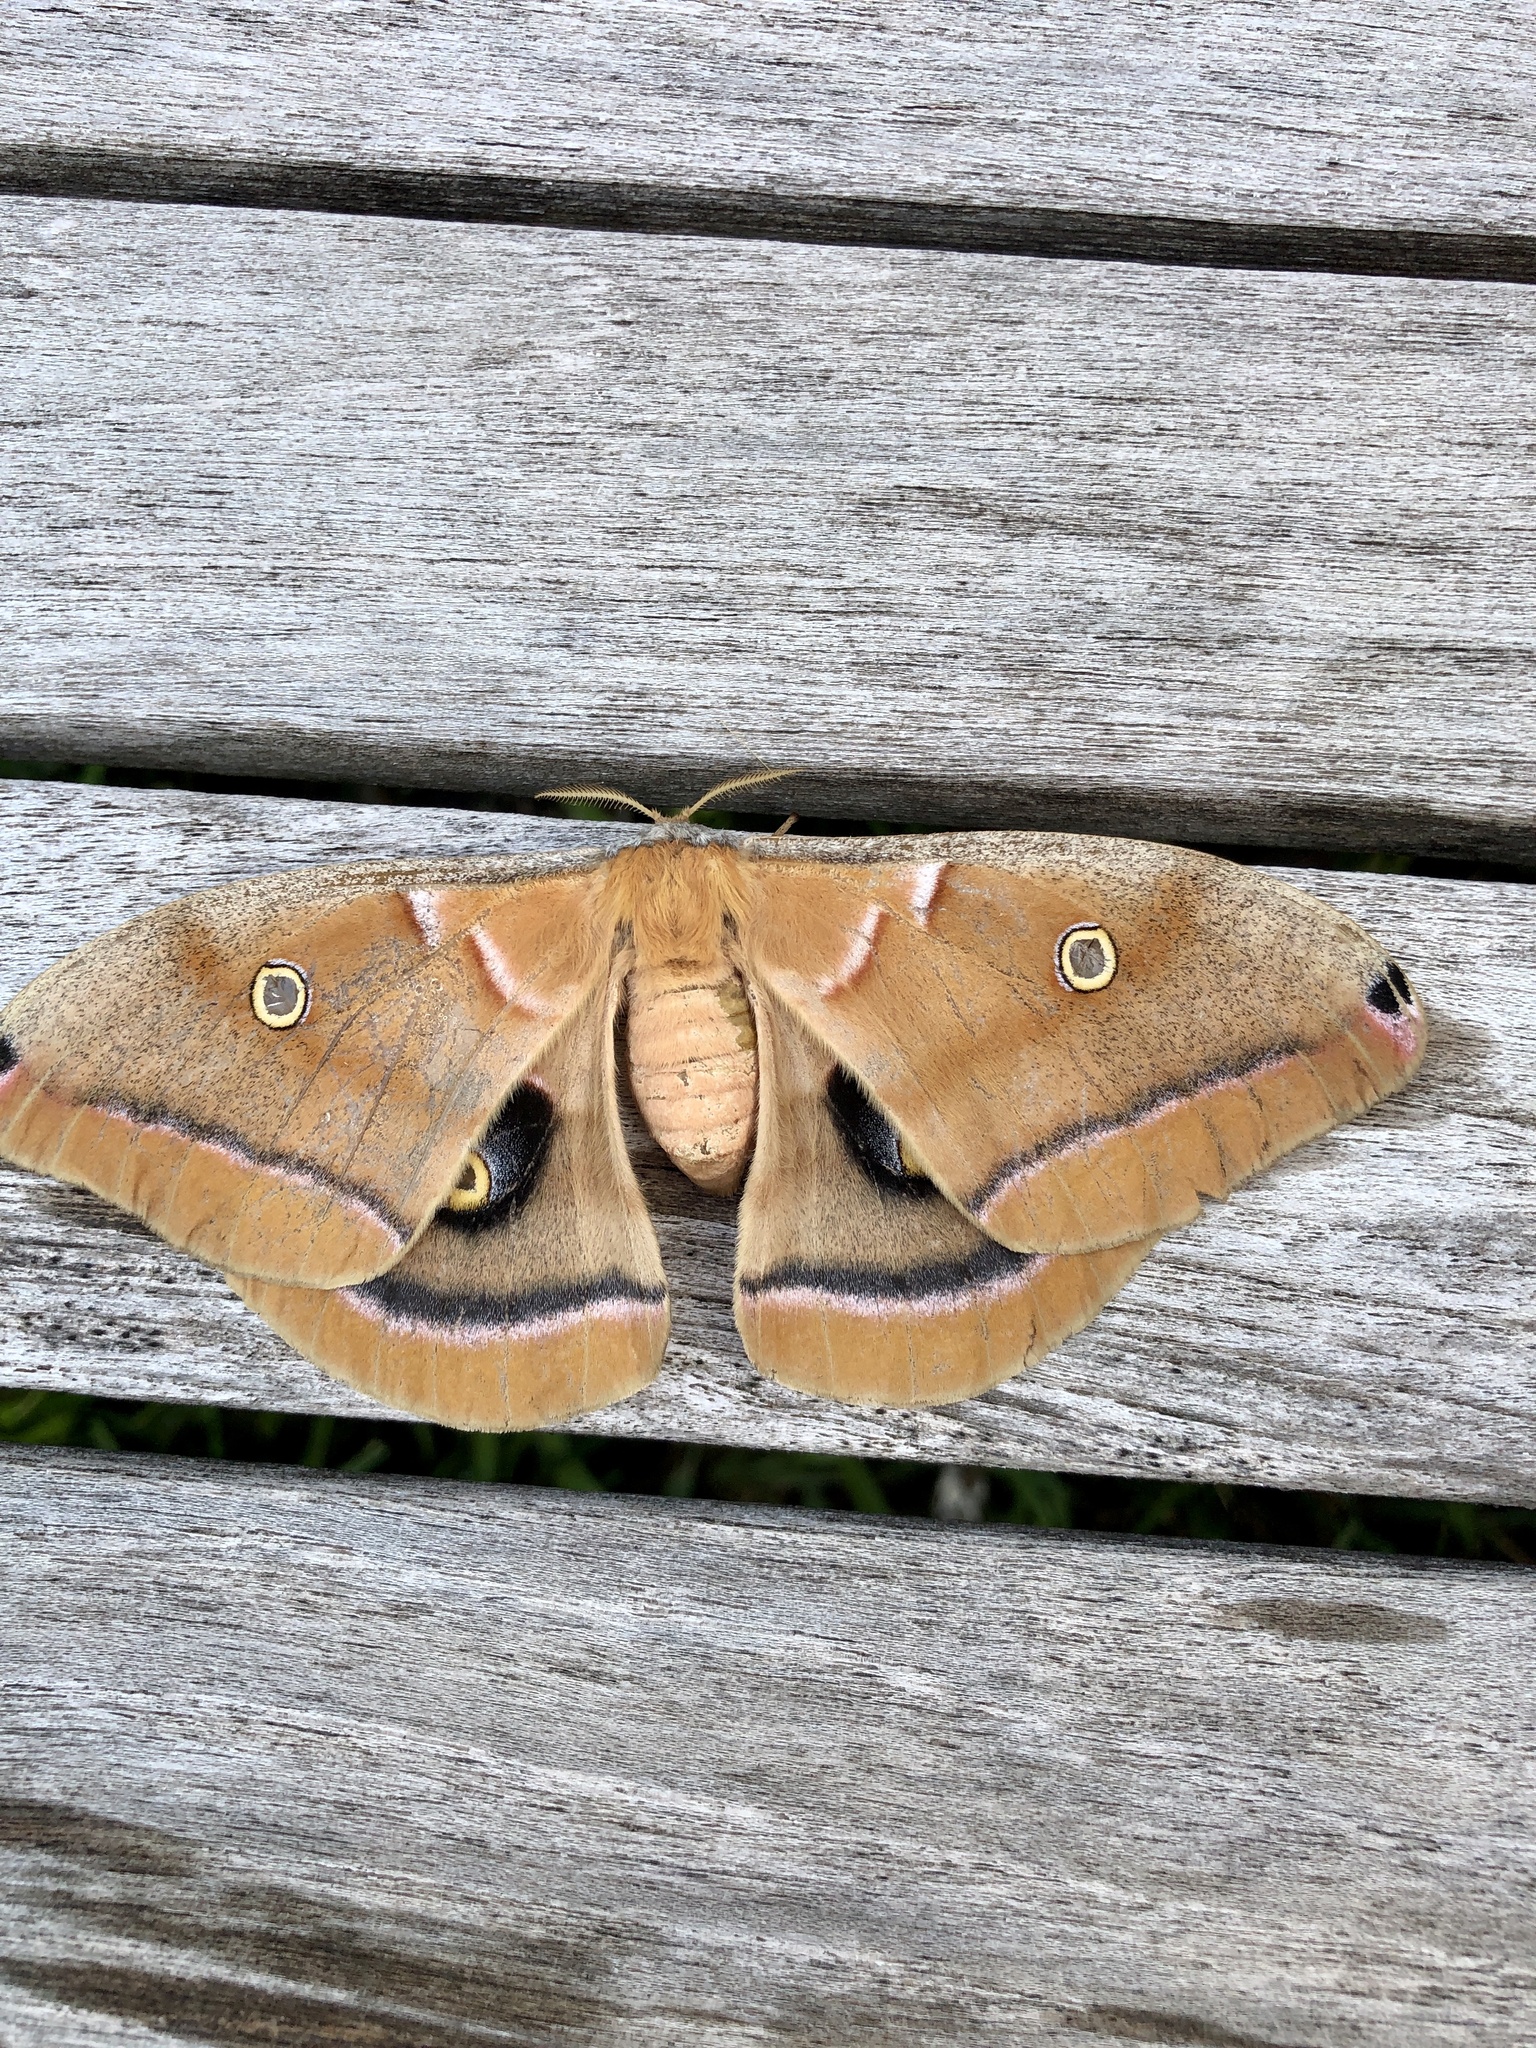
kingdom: Animalia
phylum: Arthropoda
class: Insecta
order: Lepidoptera
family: Saturniidae
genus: Antheraea
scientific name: Antheraea polyphemus
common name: Polyphemus moth
